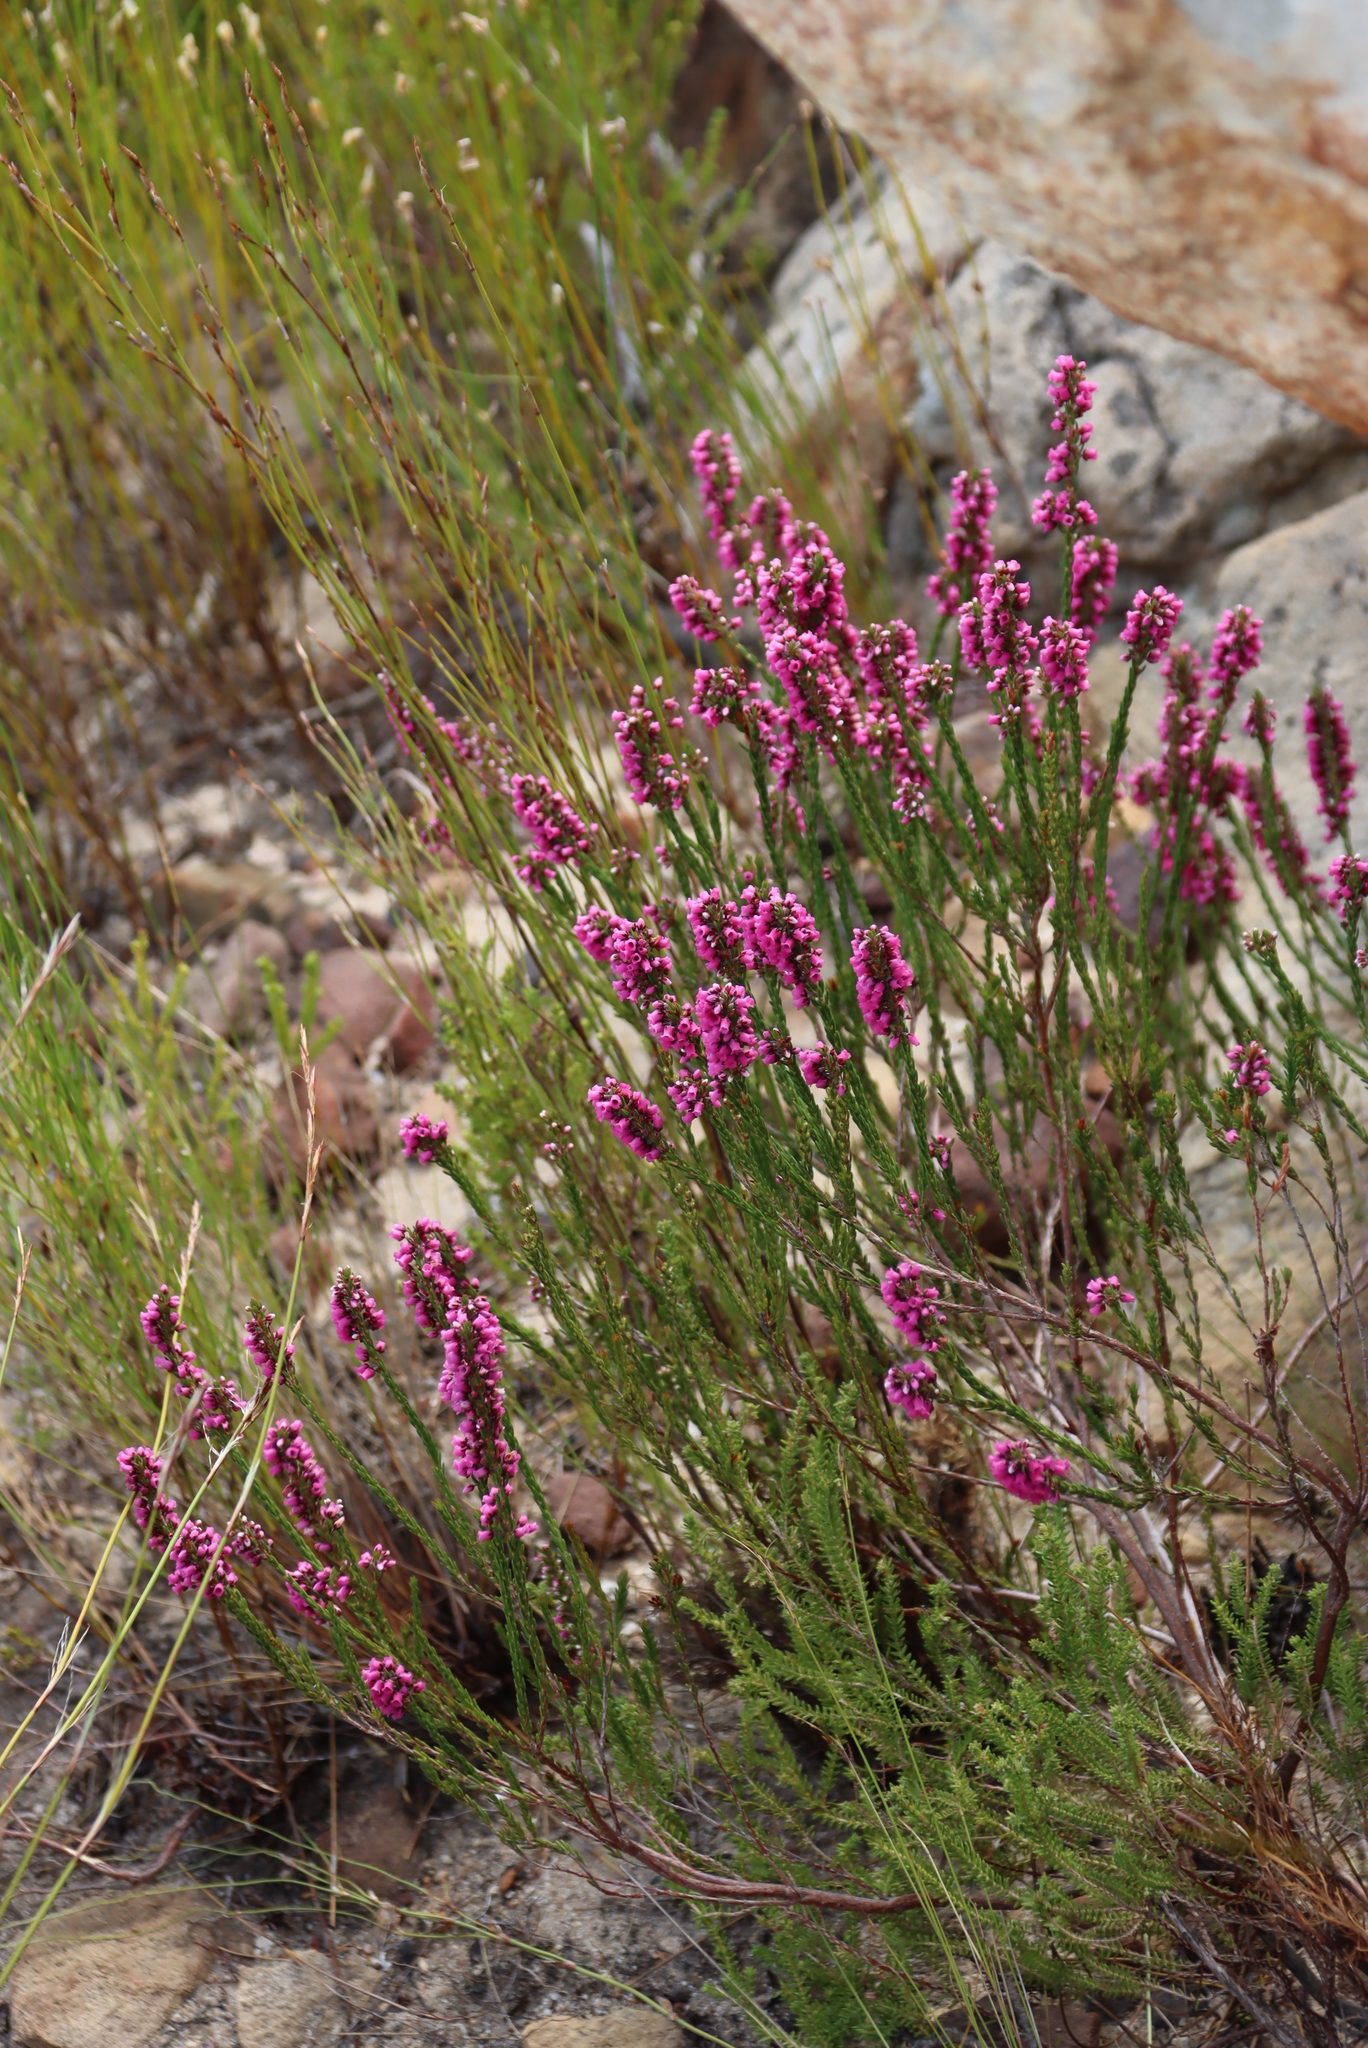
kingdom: Plantae
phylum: Tracheophyta
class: Magnoliopsida
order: Ericales
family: Ericaceae
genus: Erica
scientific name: Erica pulchella
